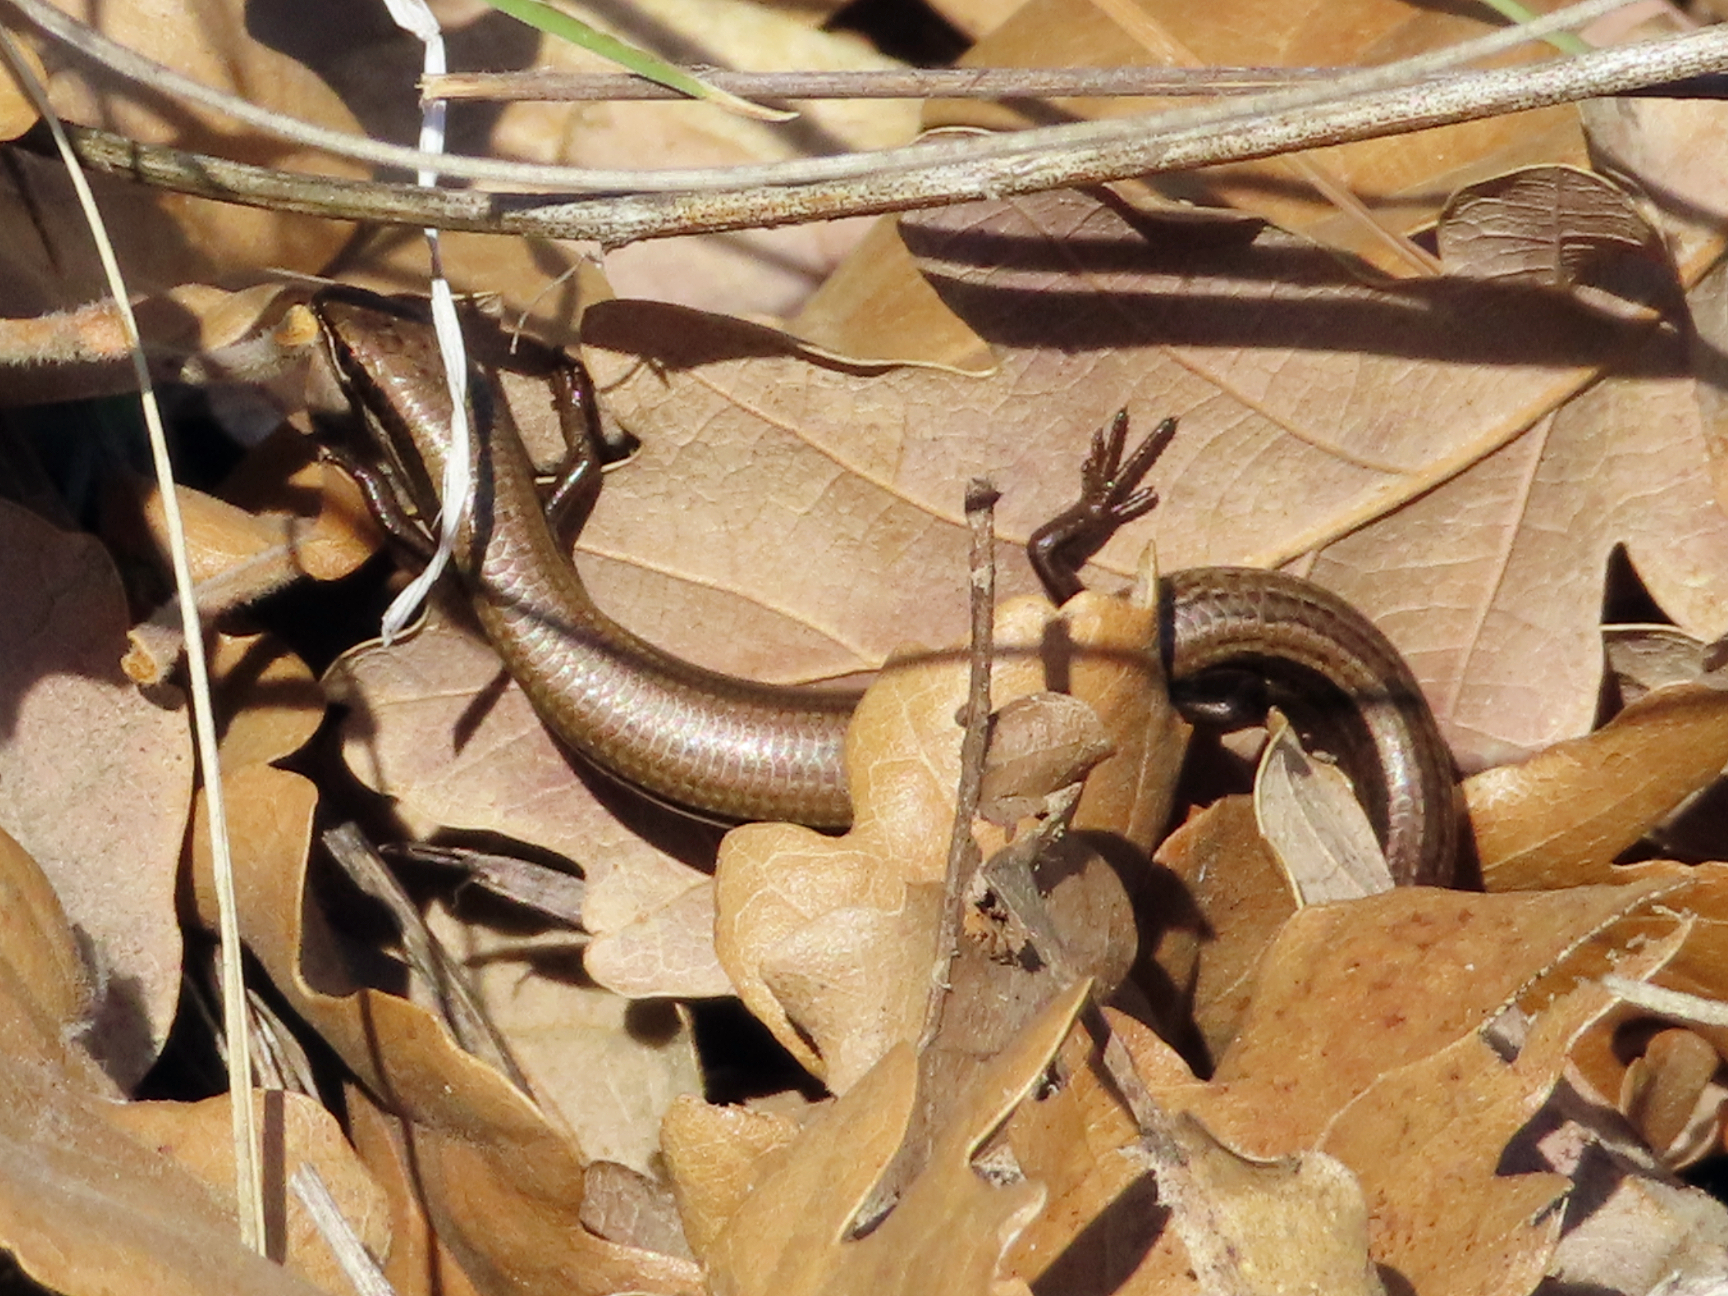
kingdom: Animalia
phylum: Chordata
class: Squamata
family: Scincidae
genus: Ablepharus
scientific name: Ablepharus kitaibelii
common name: Juniper skink
